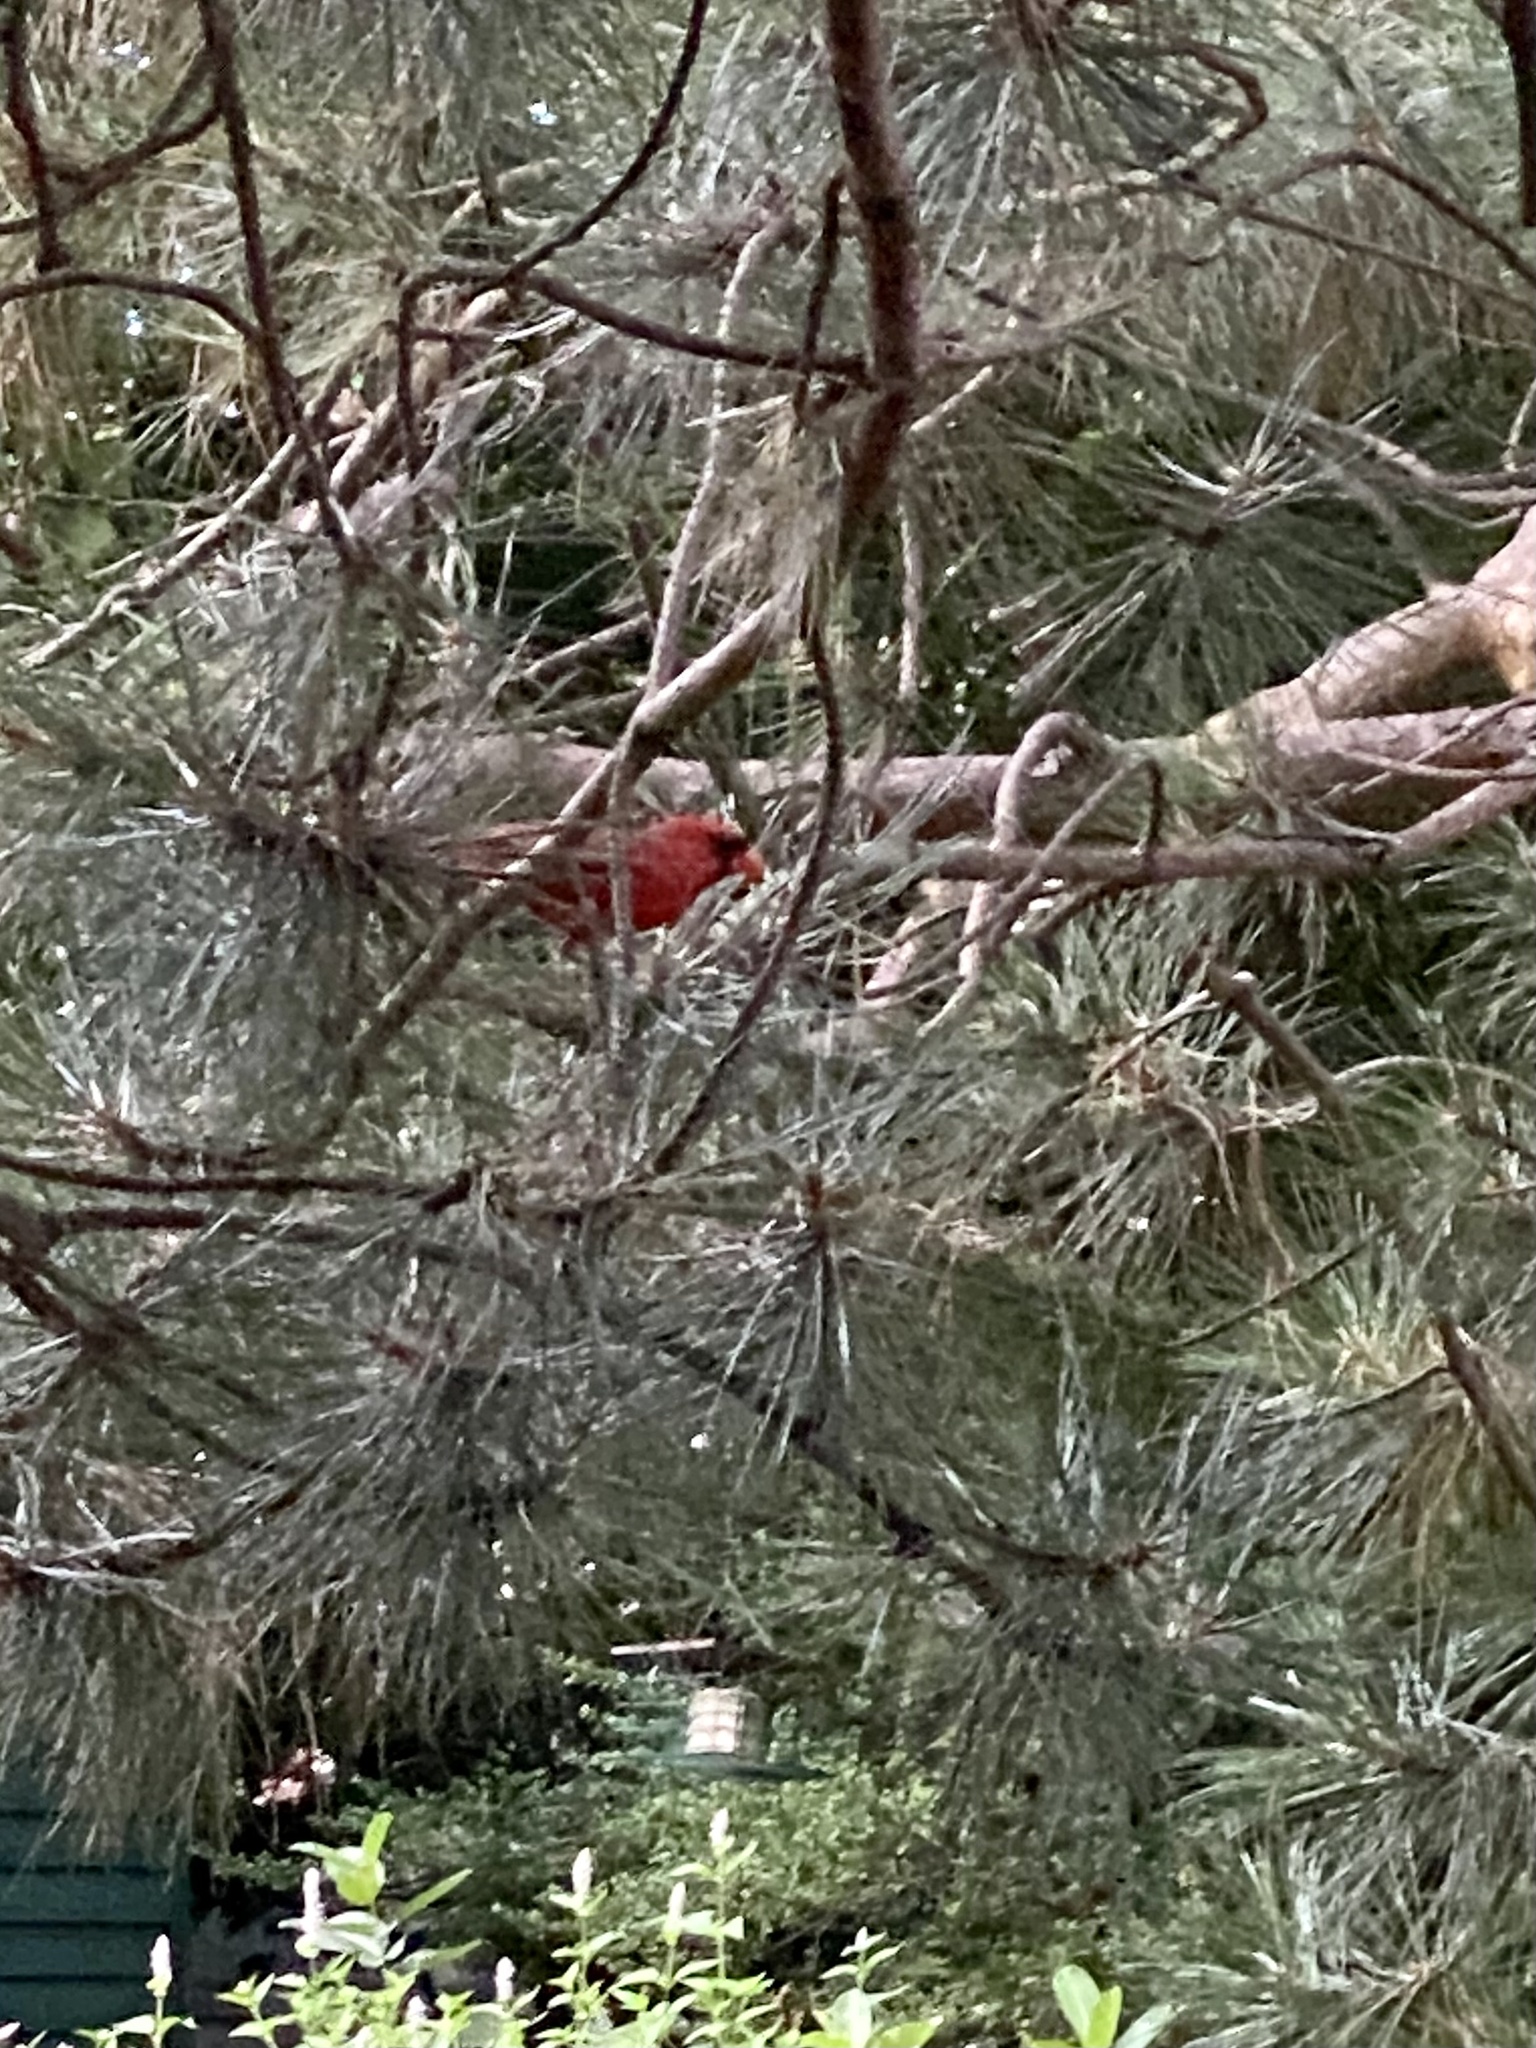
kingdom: Animalia
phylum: Chordata
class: Aves
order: Passeriformes
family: Cardinalidae
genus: Cardinalis
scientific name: Cardinalis cardinalis
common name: Northern cardinal
